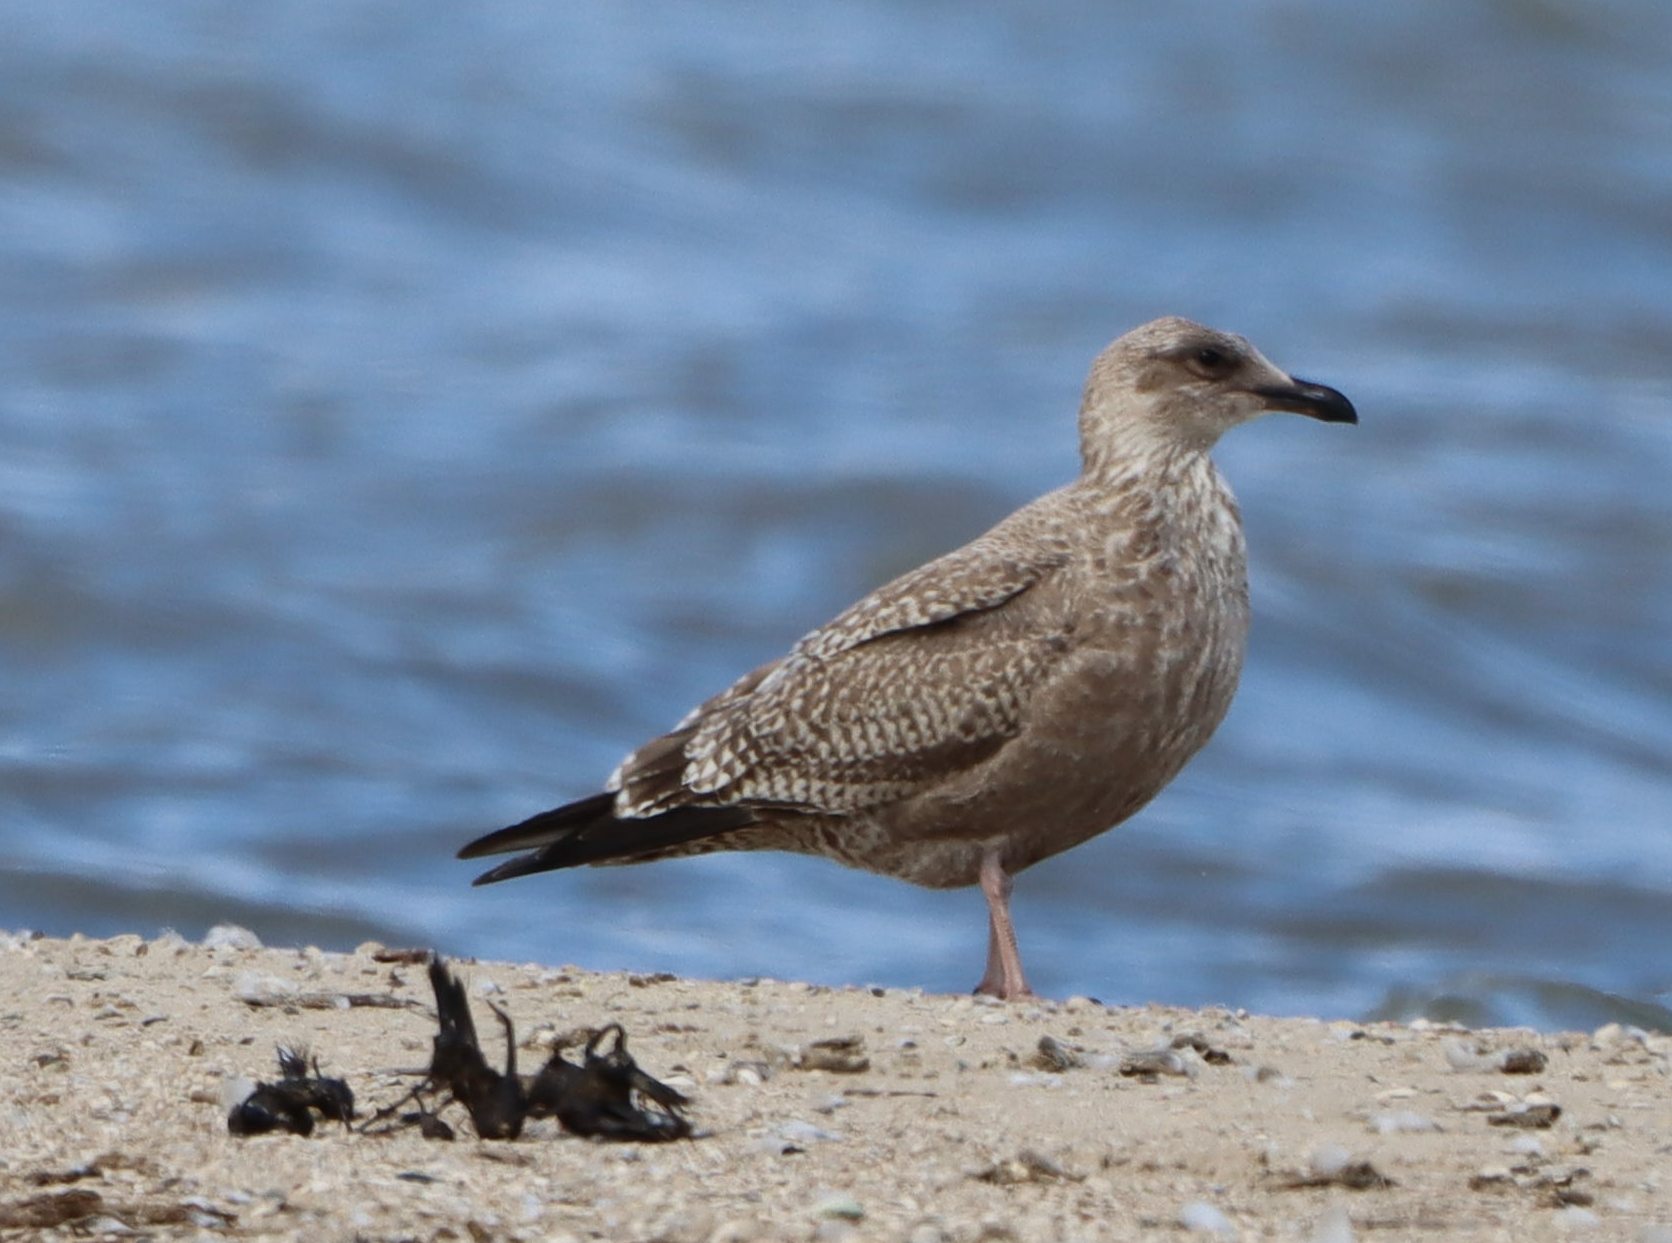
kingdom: Animalia
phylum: Chordata
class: Aves
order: Charadriiformes
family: Laridae
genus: Larus
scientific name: Larus argentatus
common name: Herring gull
